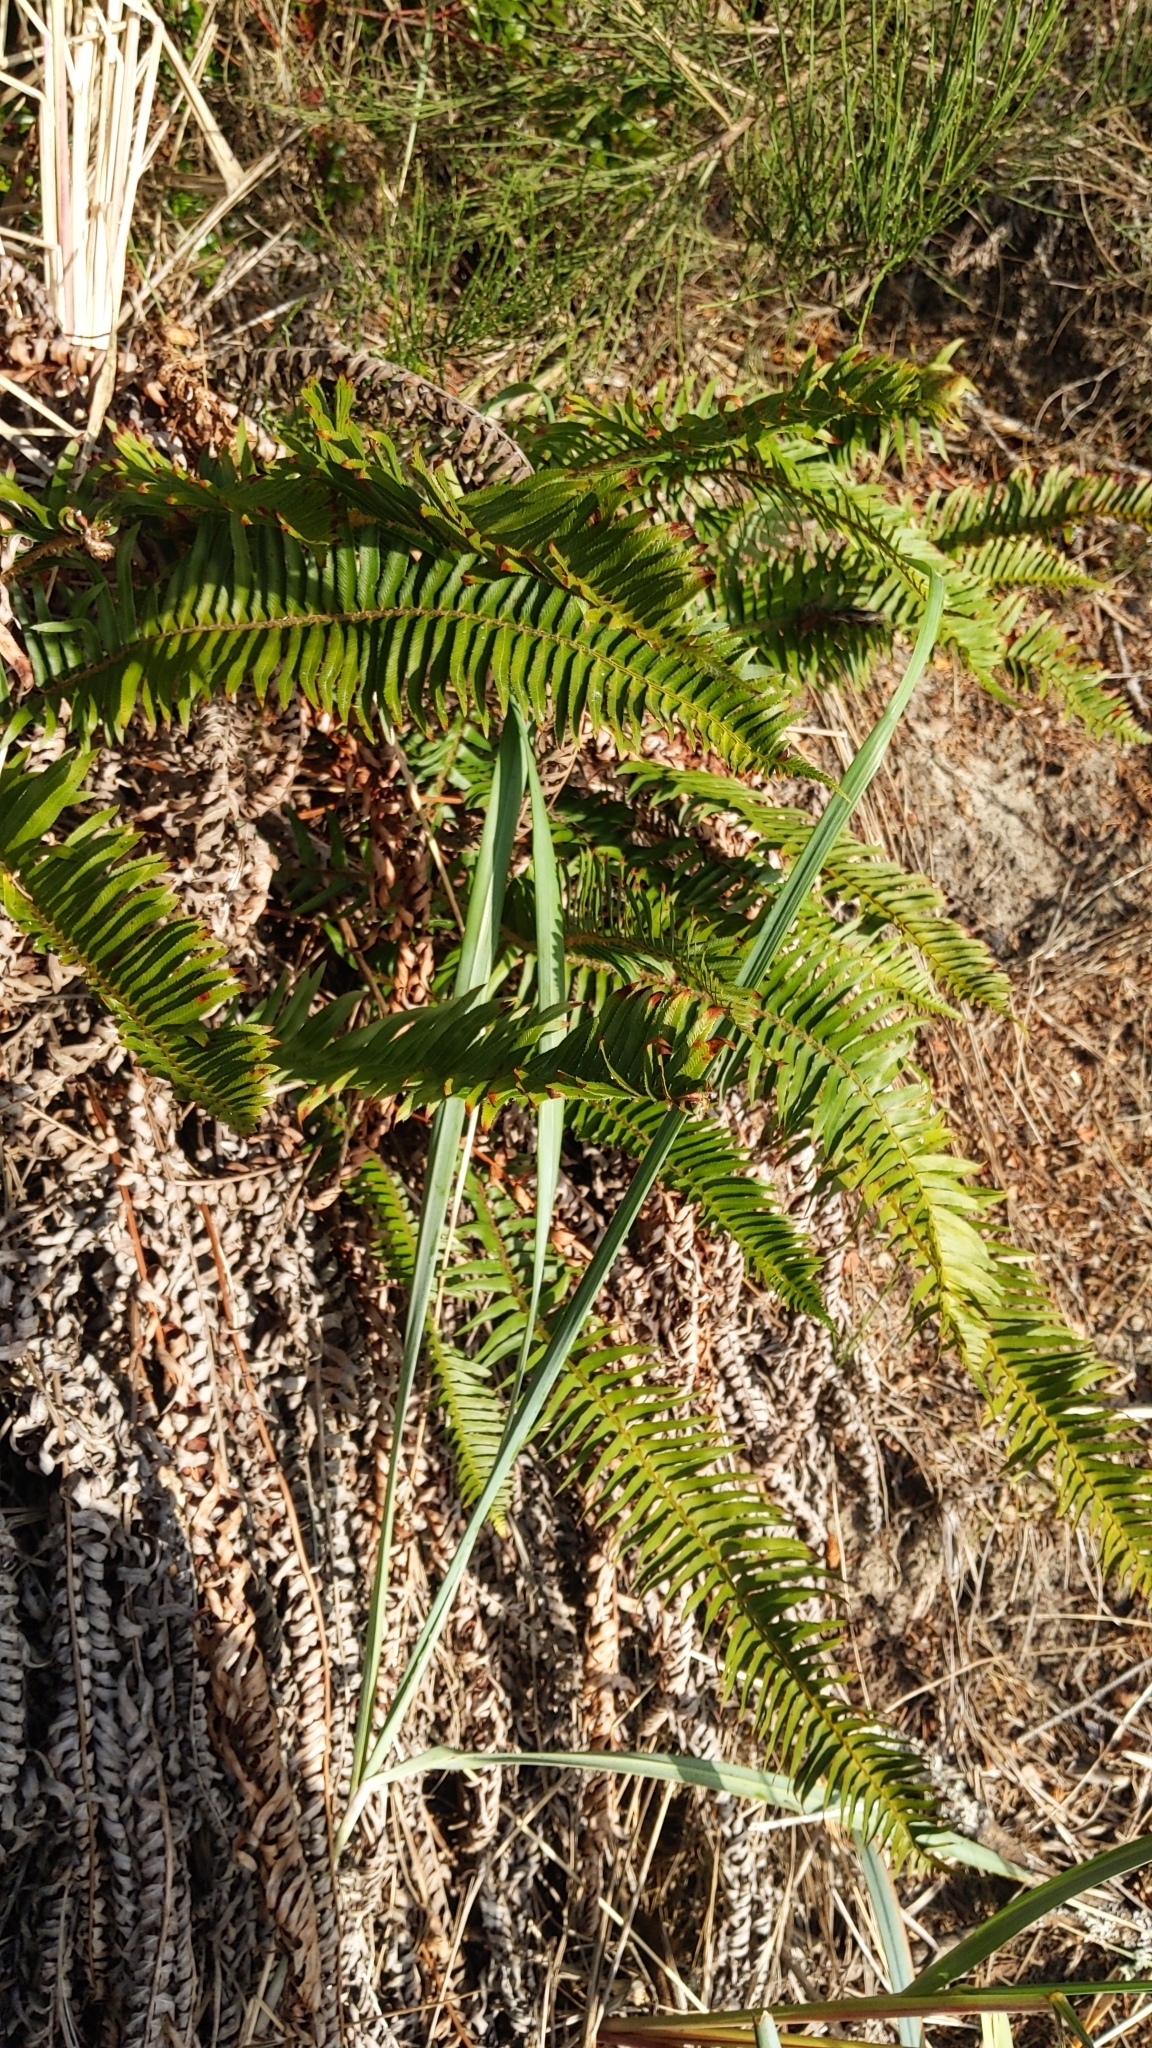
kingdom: Plantae
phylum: Tracheophyta
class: Polypodiopsida
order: Polypodiales
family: Dryopteridaceae
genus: Polystichum
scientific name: Polystichum munitum
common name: Western sword-fern
